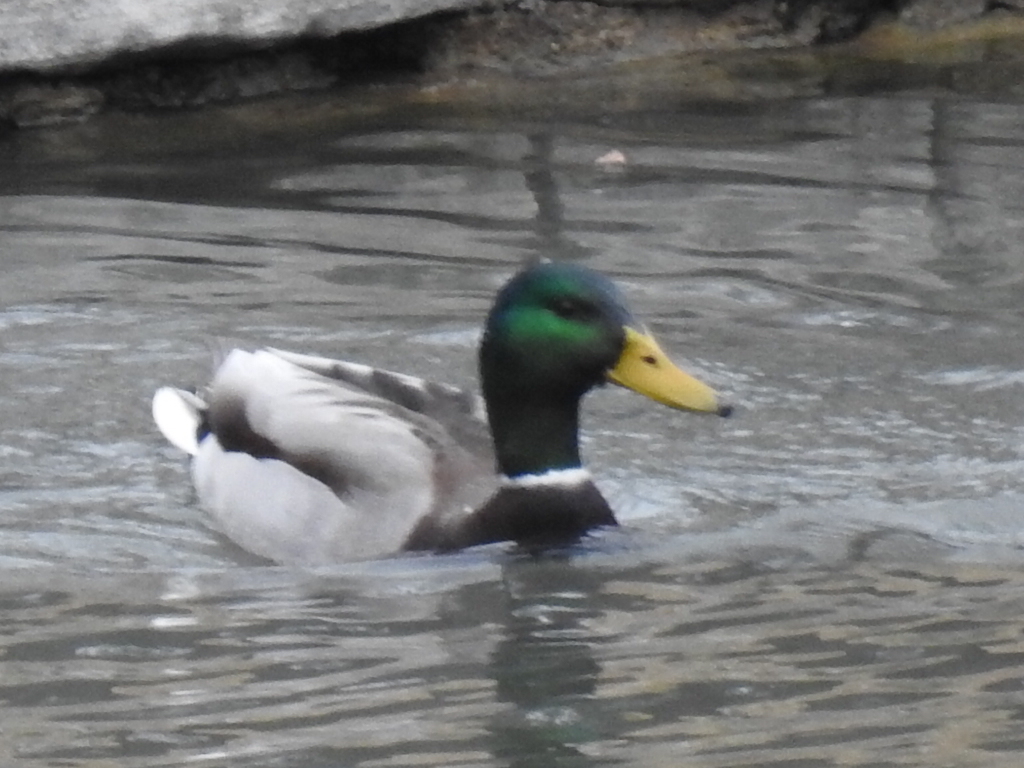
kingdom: Animalia
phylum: Chordata
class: Aves
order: Anseriformes
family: Anatidae
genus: Anas
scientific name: Anas platyrhynchos
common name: Mallard
